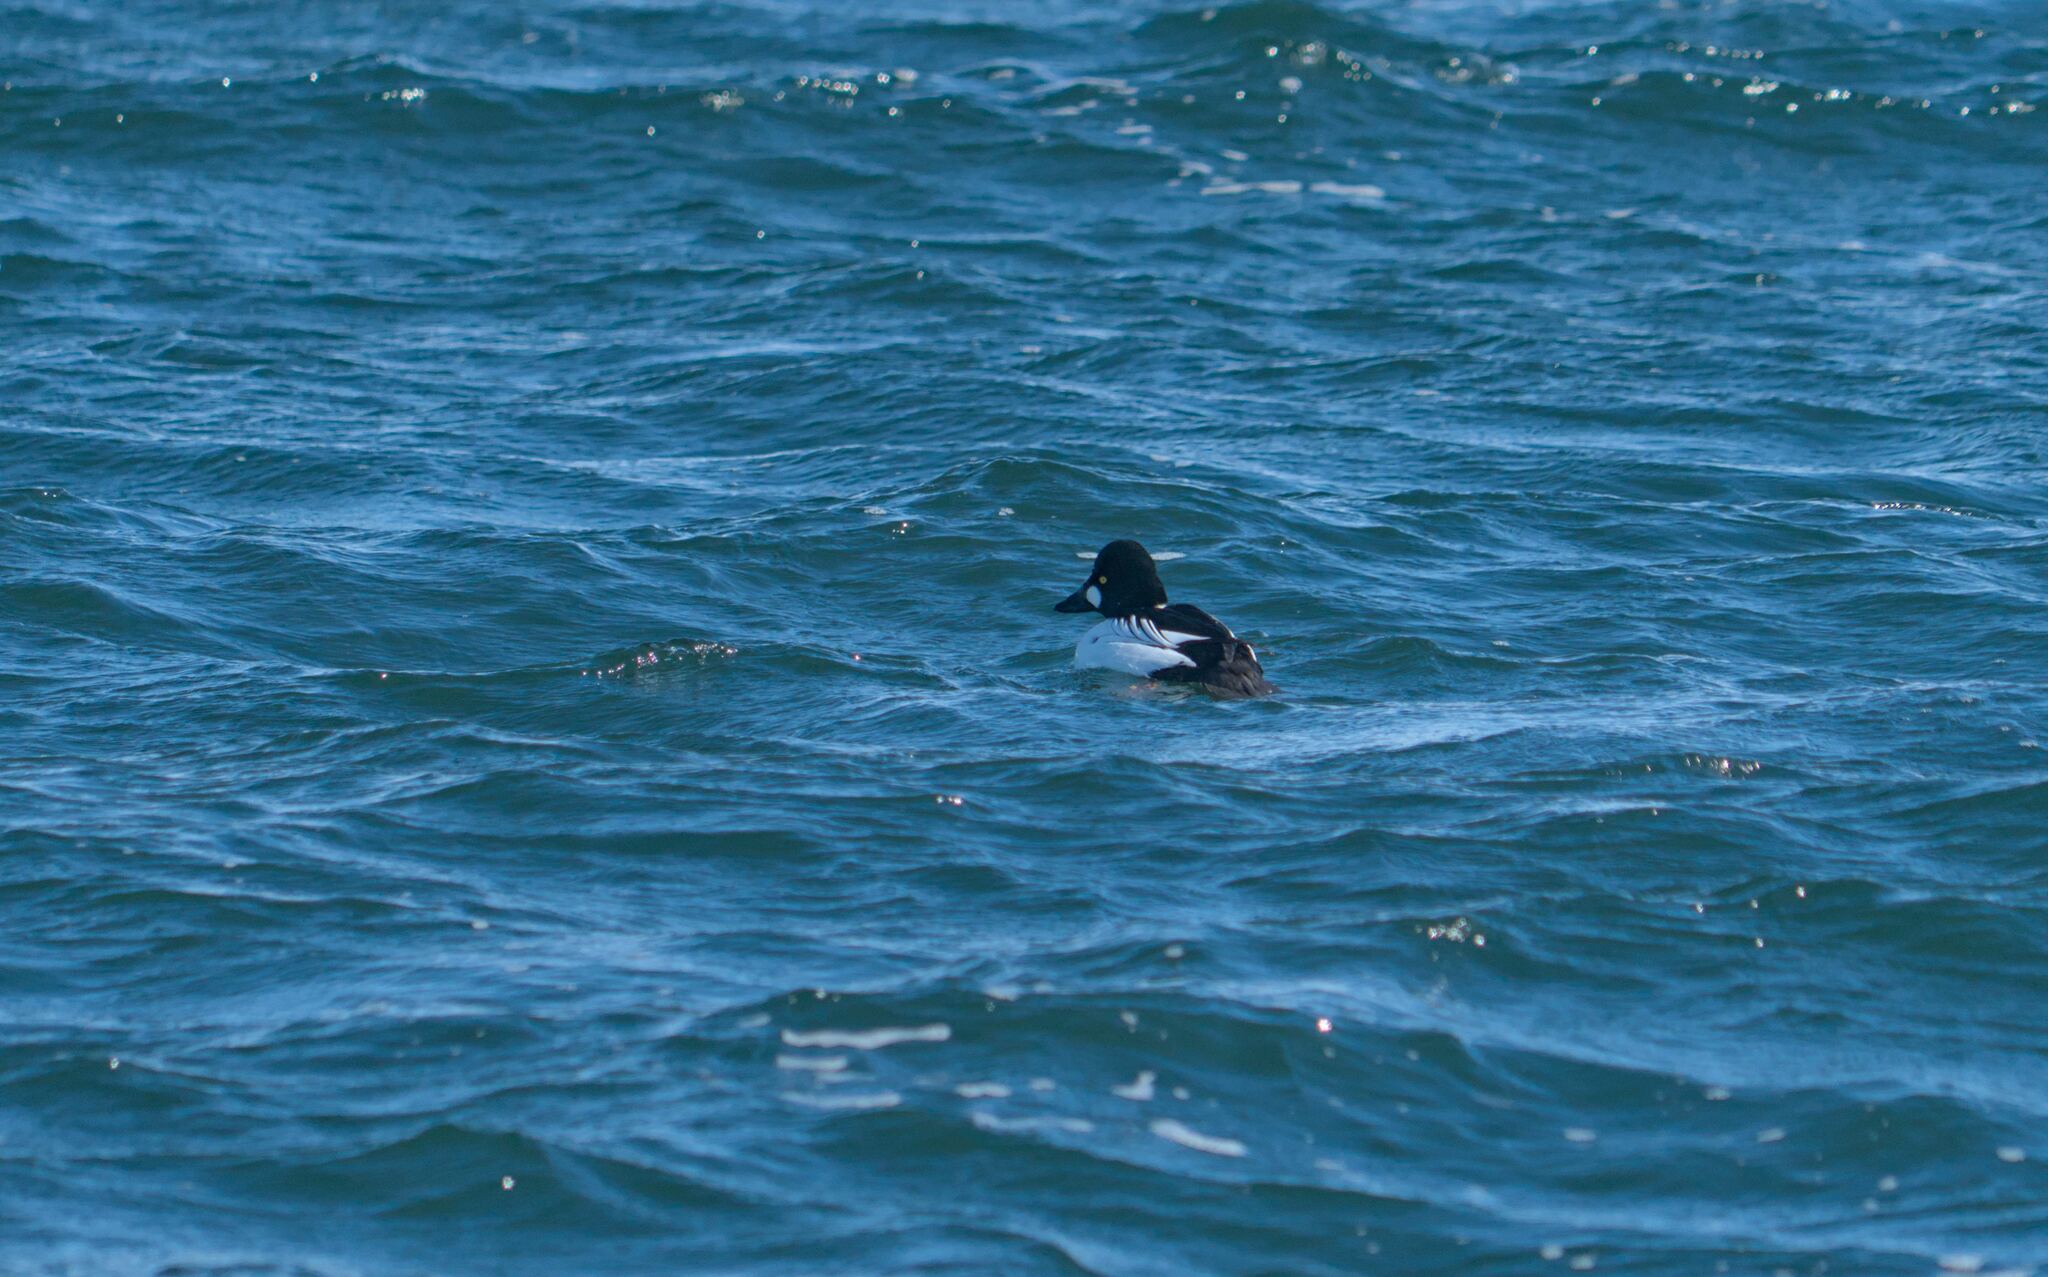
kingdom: Animalia
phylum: Chordata
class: Aves
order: Anseriformes
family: Anatidae
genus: Bucephala
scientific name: Bucephala clangula
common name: Common goldeneye
